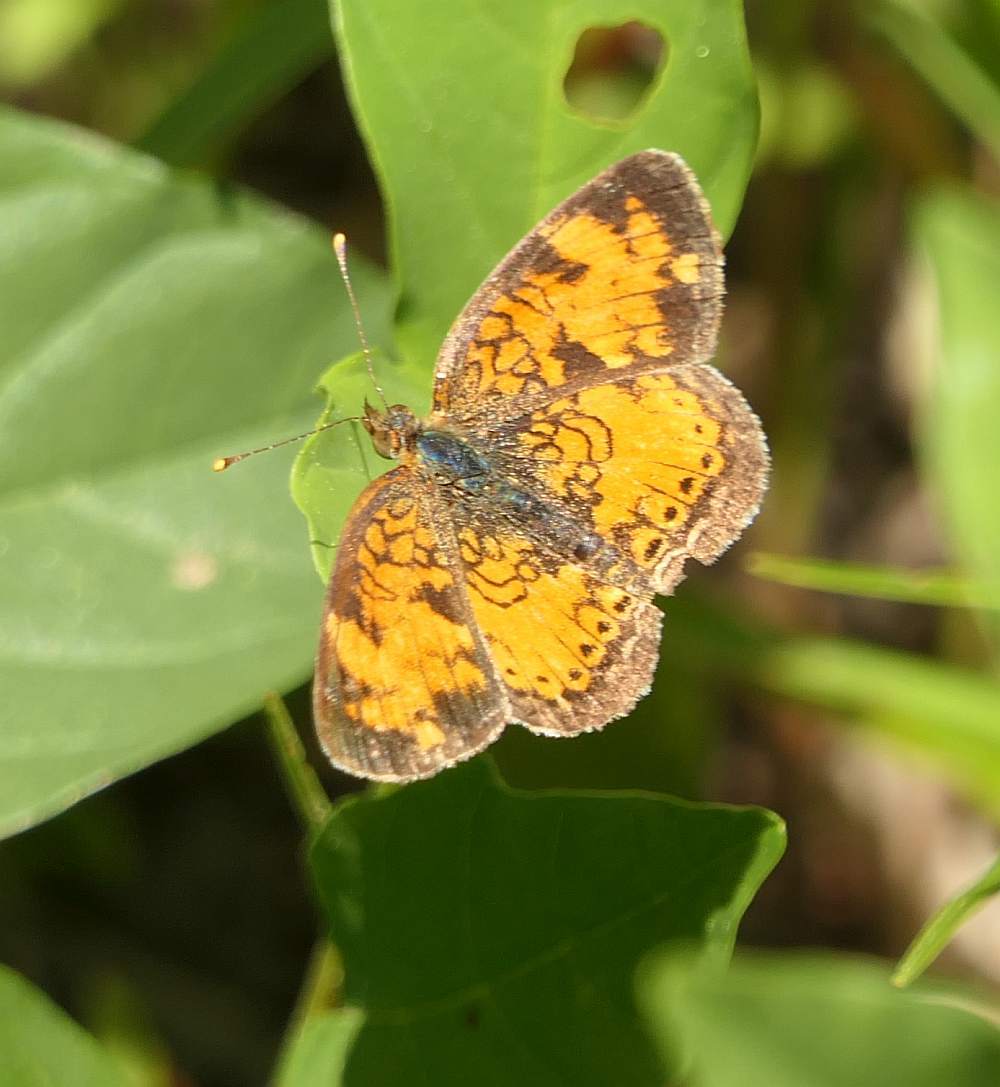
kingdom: Animalia
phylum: Arthropoda
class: Insecta
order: Lepidoptera
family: Nymphalidae
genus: Phyciodes
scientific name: Phyciodes tharos
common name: Pearl crescent
